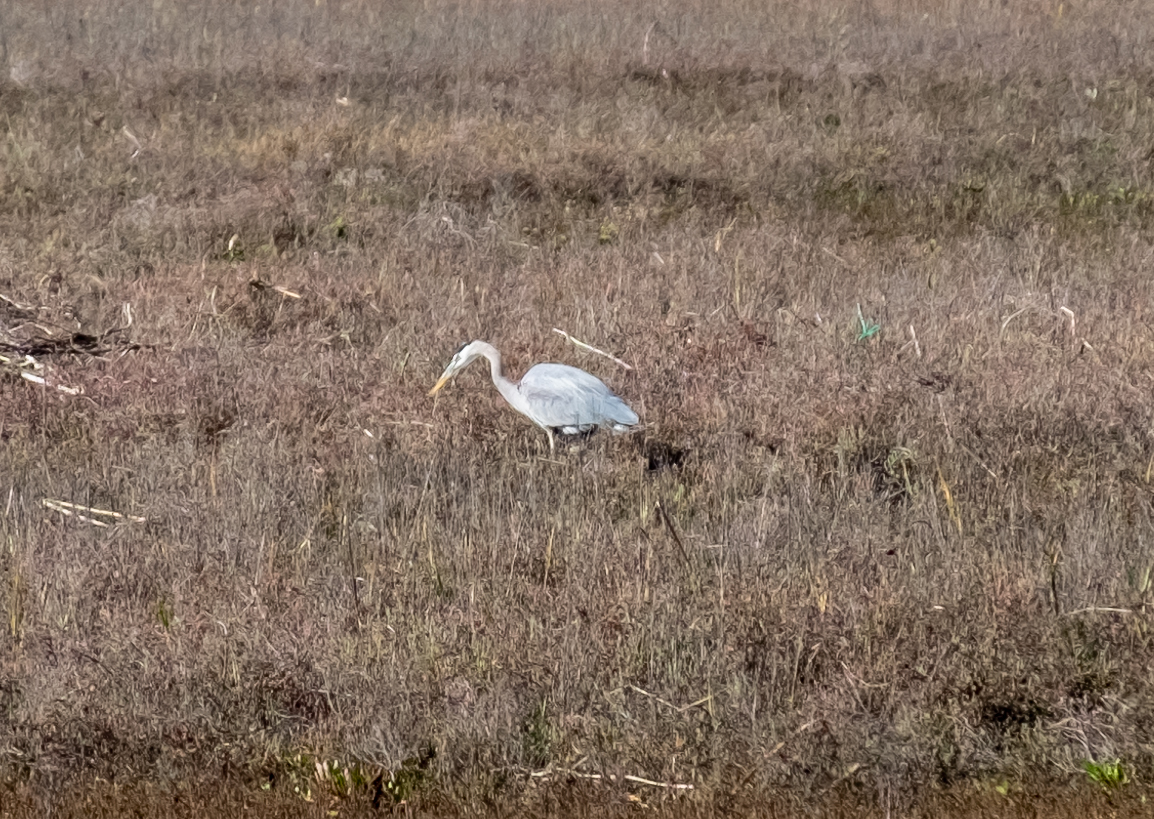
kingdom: Animalia
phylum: Chordata
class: Aves
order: Pelecaniformes
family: Ardeidae
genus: Ardea
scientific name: Ardea herodias
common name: Great blue heron
